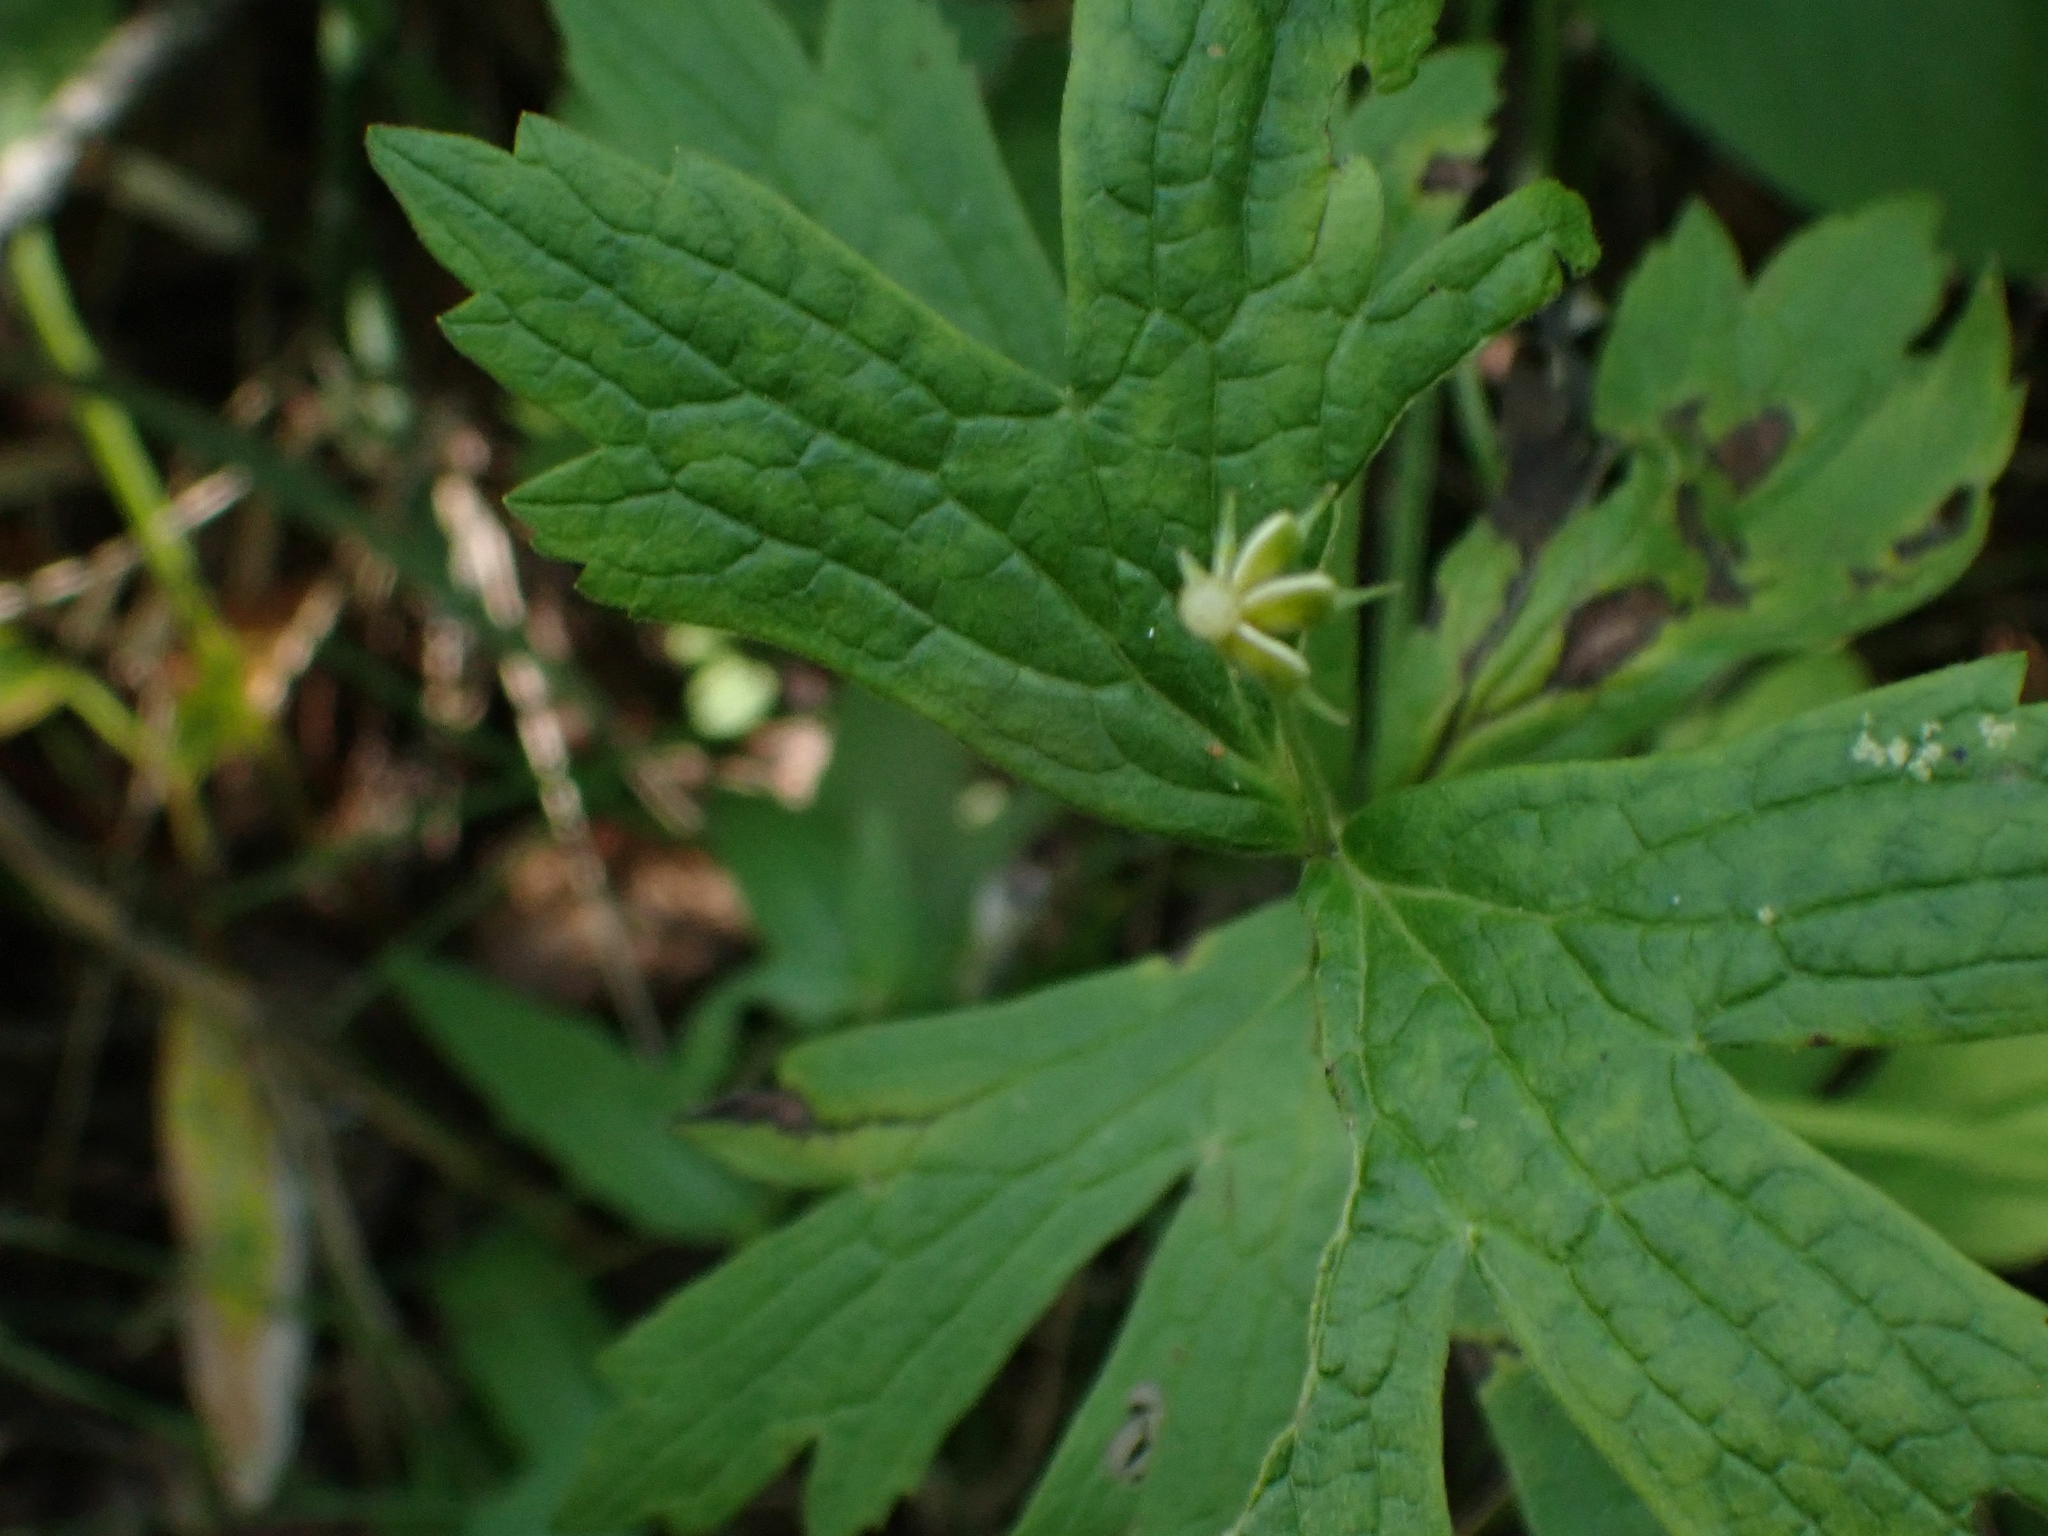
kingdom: Plantae
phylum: Tracheophyta
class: Magnoliopsida
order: Ranunculales
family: Ranunculaceae
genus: Anemonastrum
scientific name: Anemonastrum canadense
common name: Canada anemone
